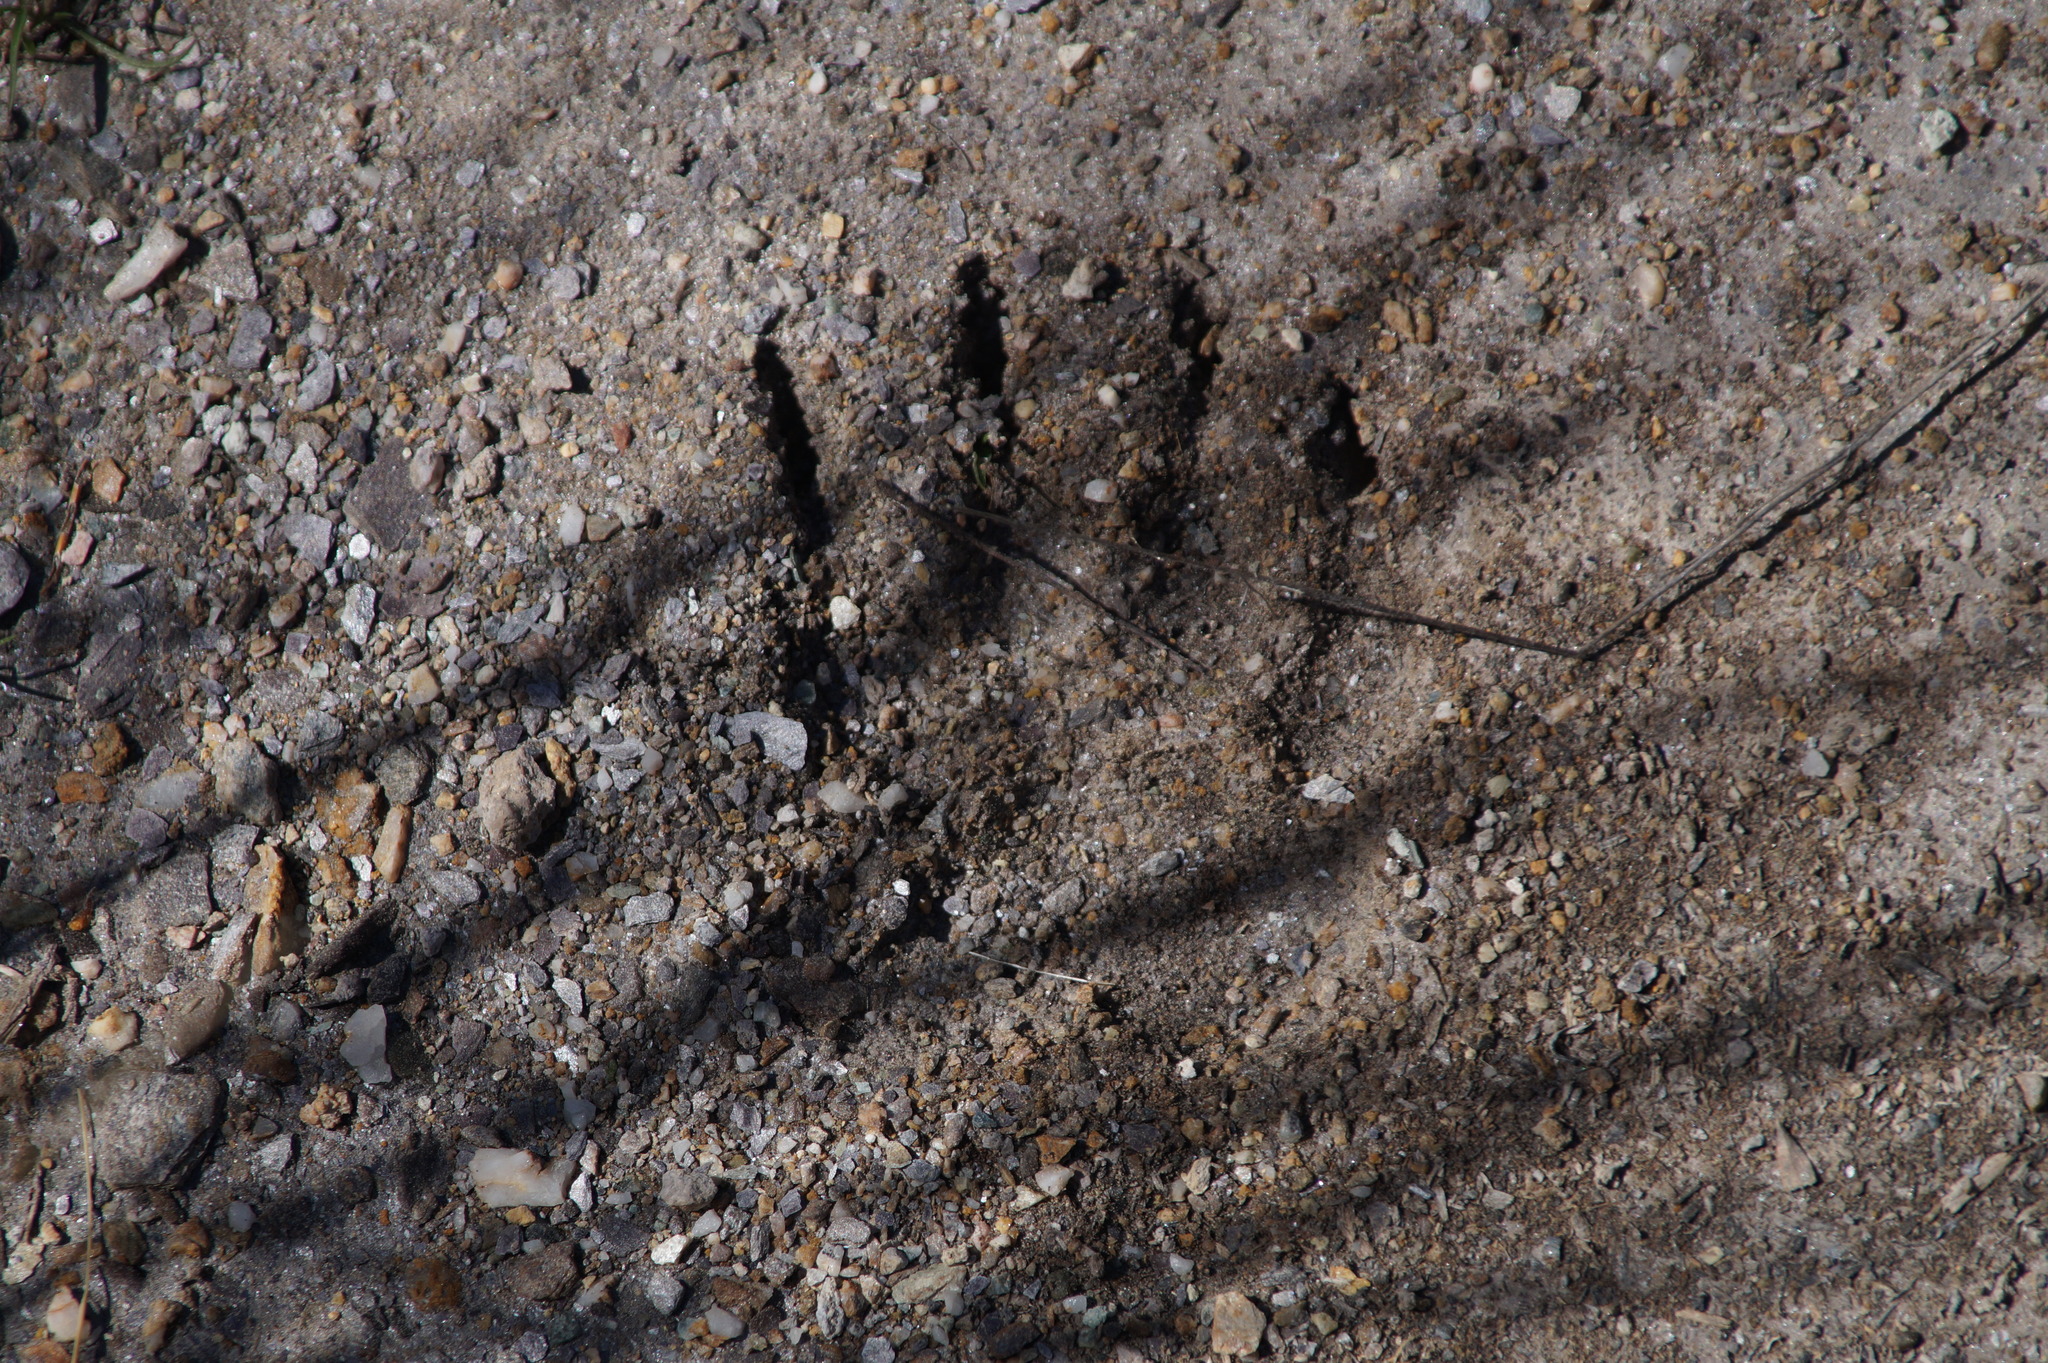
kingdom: Animalia
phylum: Chordata
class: Mammalia
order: Carnivora
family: Mustelidae
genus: Meles
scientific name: Meles meles
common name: Eurasian badger
